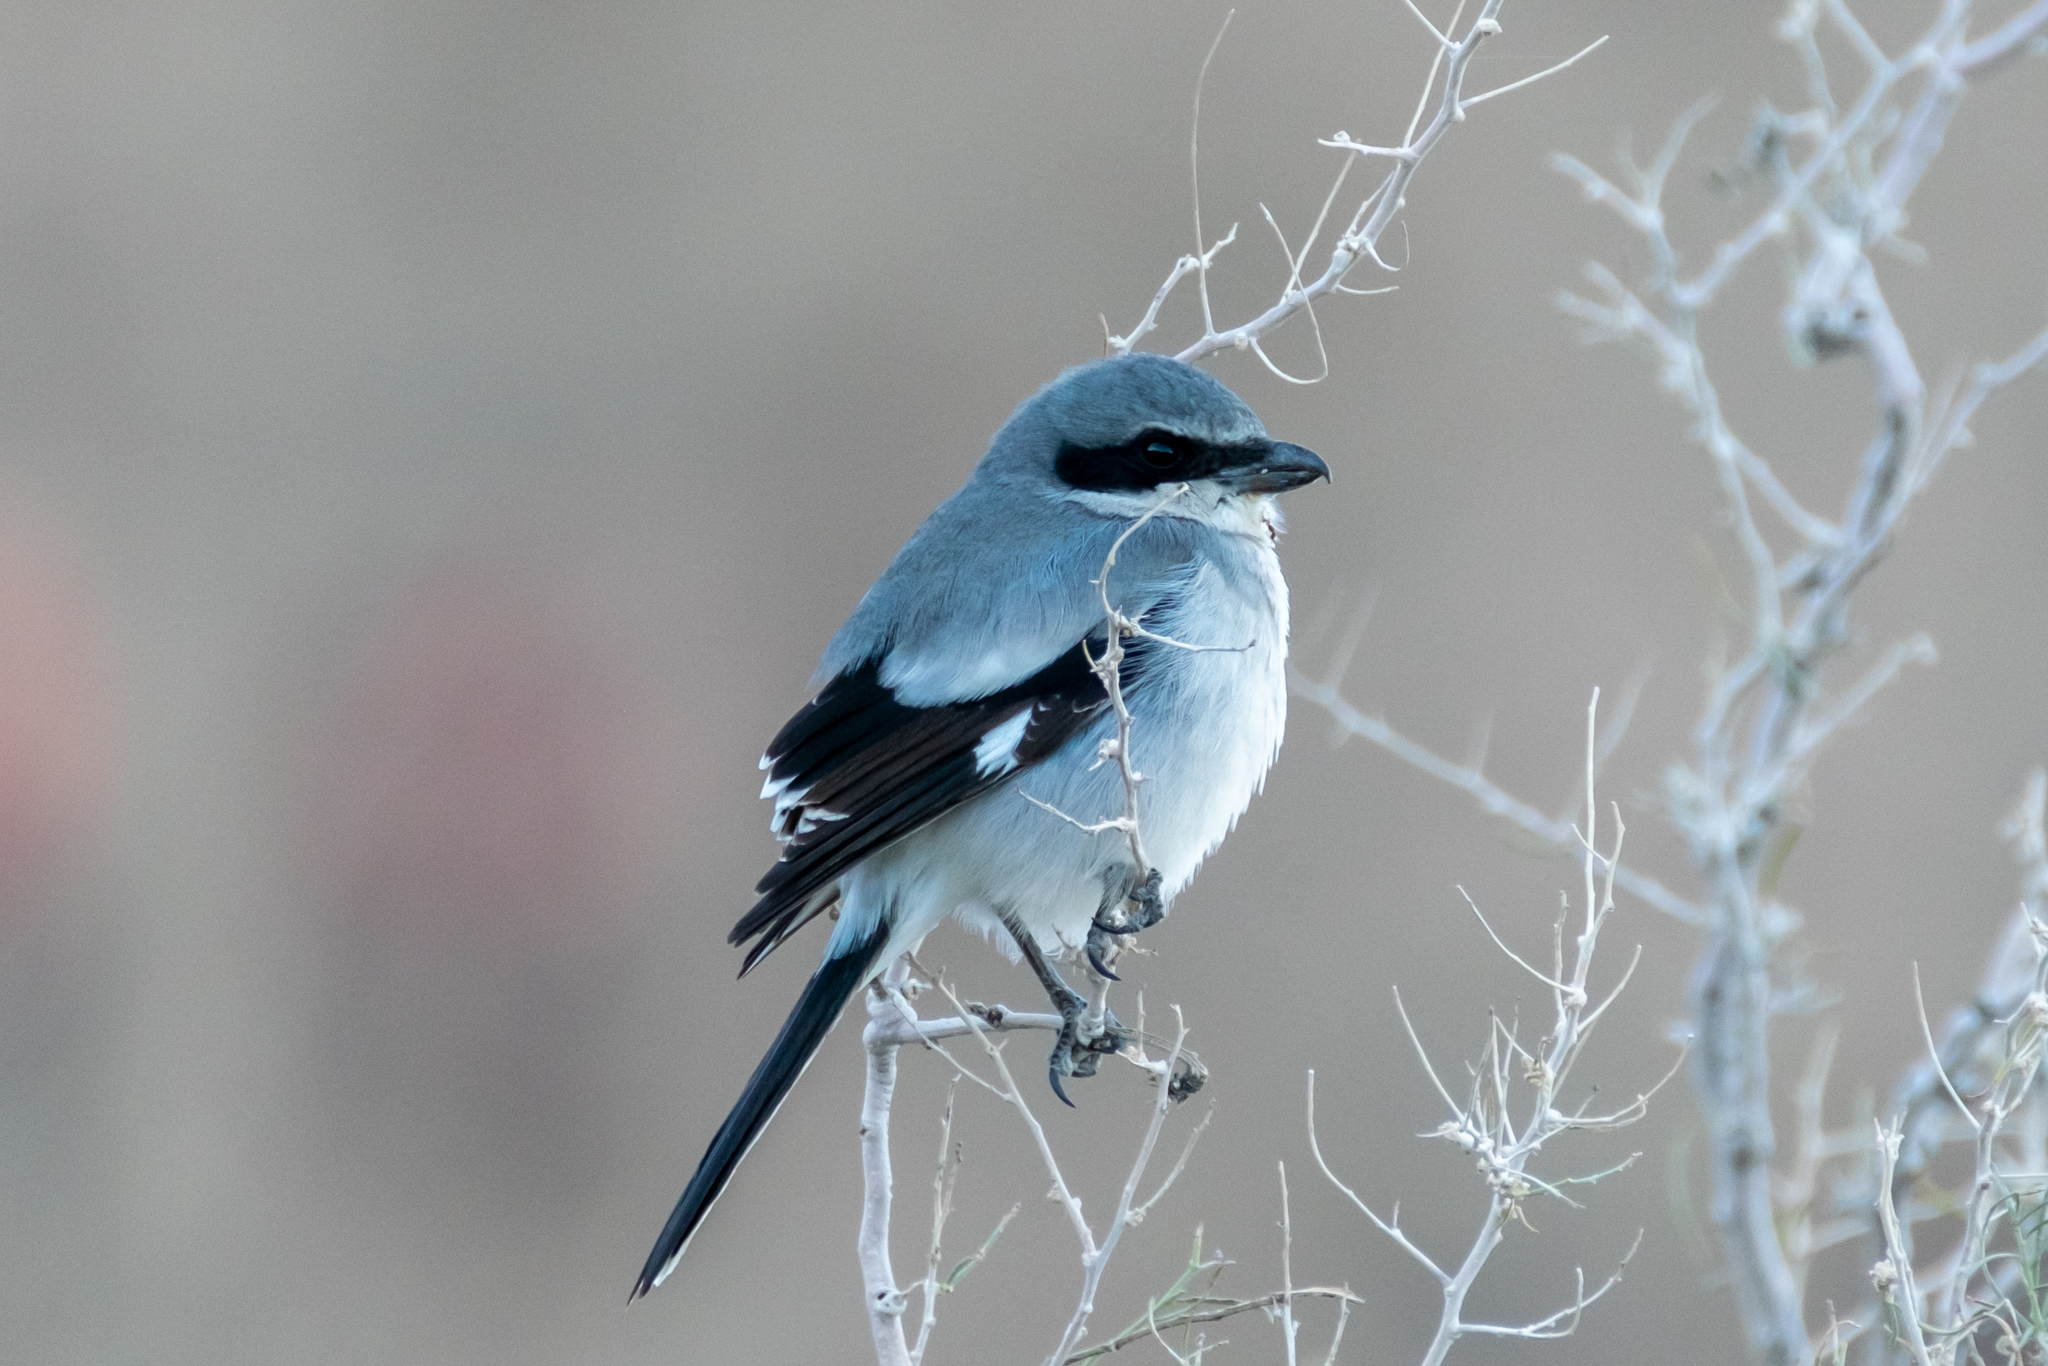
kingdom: Animalia
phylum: Chordata
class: Aves
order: Passeriformes
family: Laniidae
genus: Lanius
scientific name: Lanius ludovicianus
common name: Loggerhead shrike
